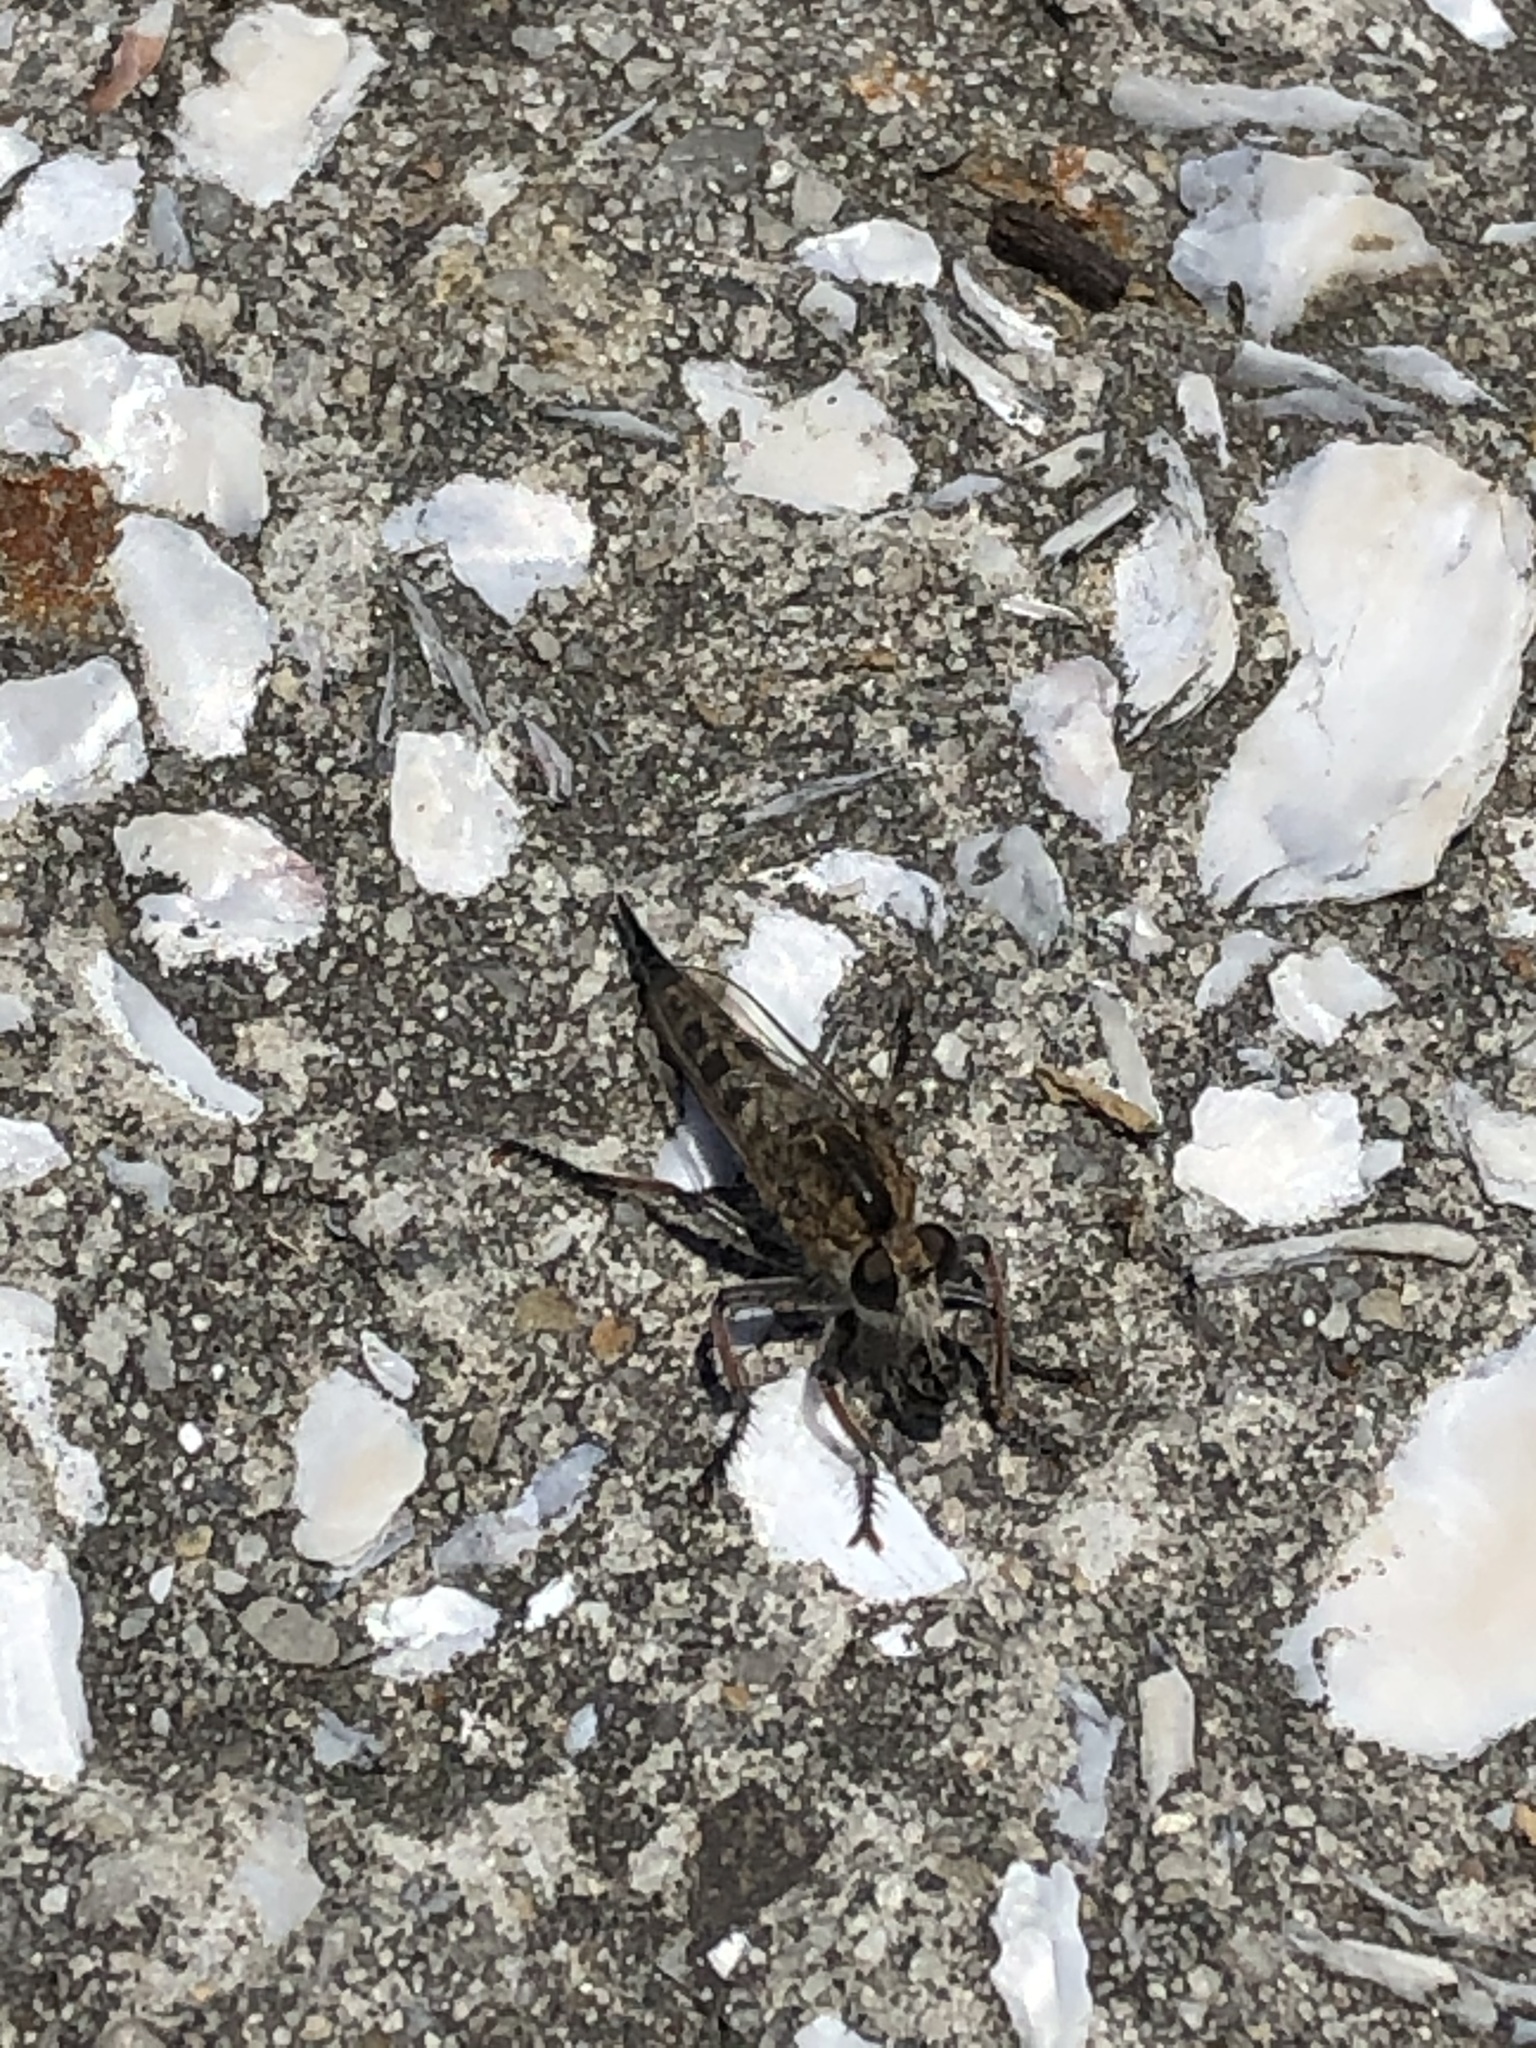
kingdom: Animalia
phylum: Arthropoda
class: Insecta
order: Diptera
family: Asilidae
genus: Efferia
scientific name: Efferia albibarbis
